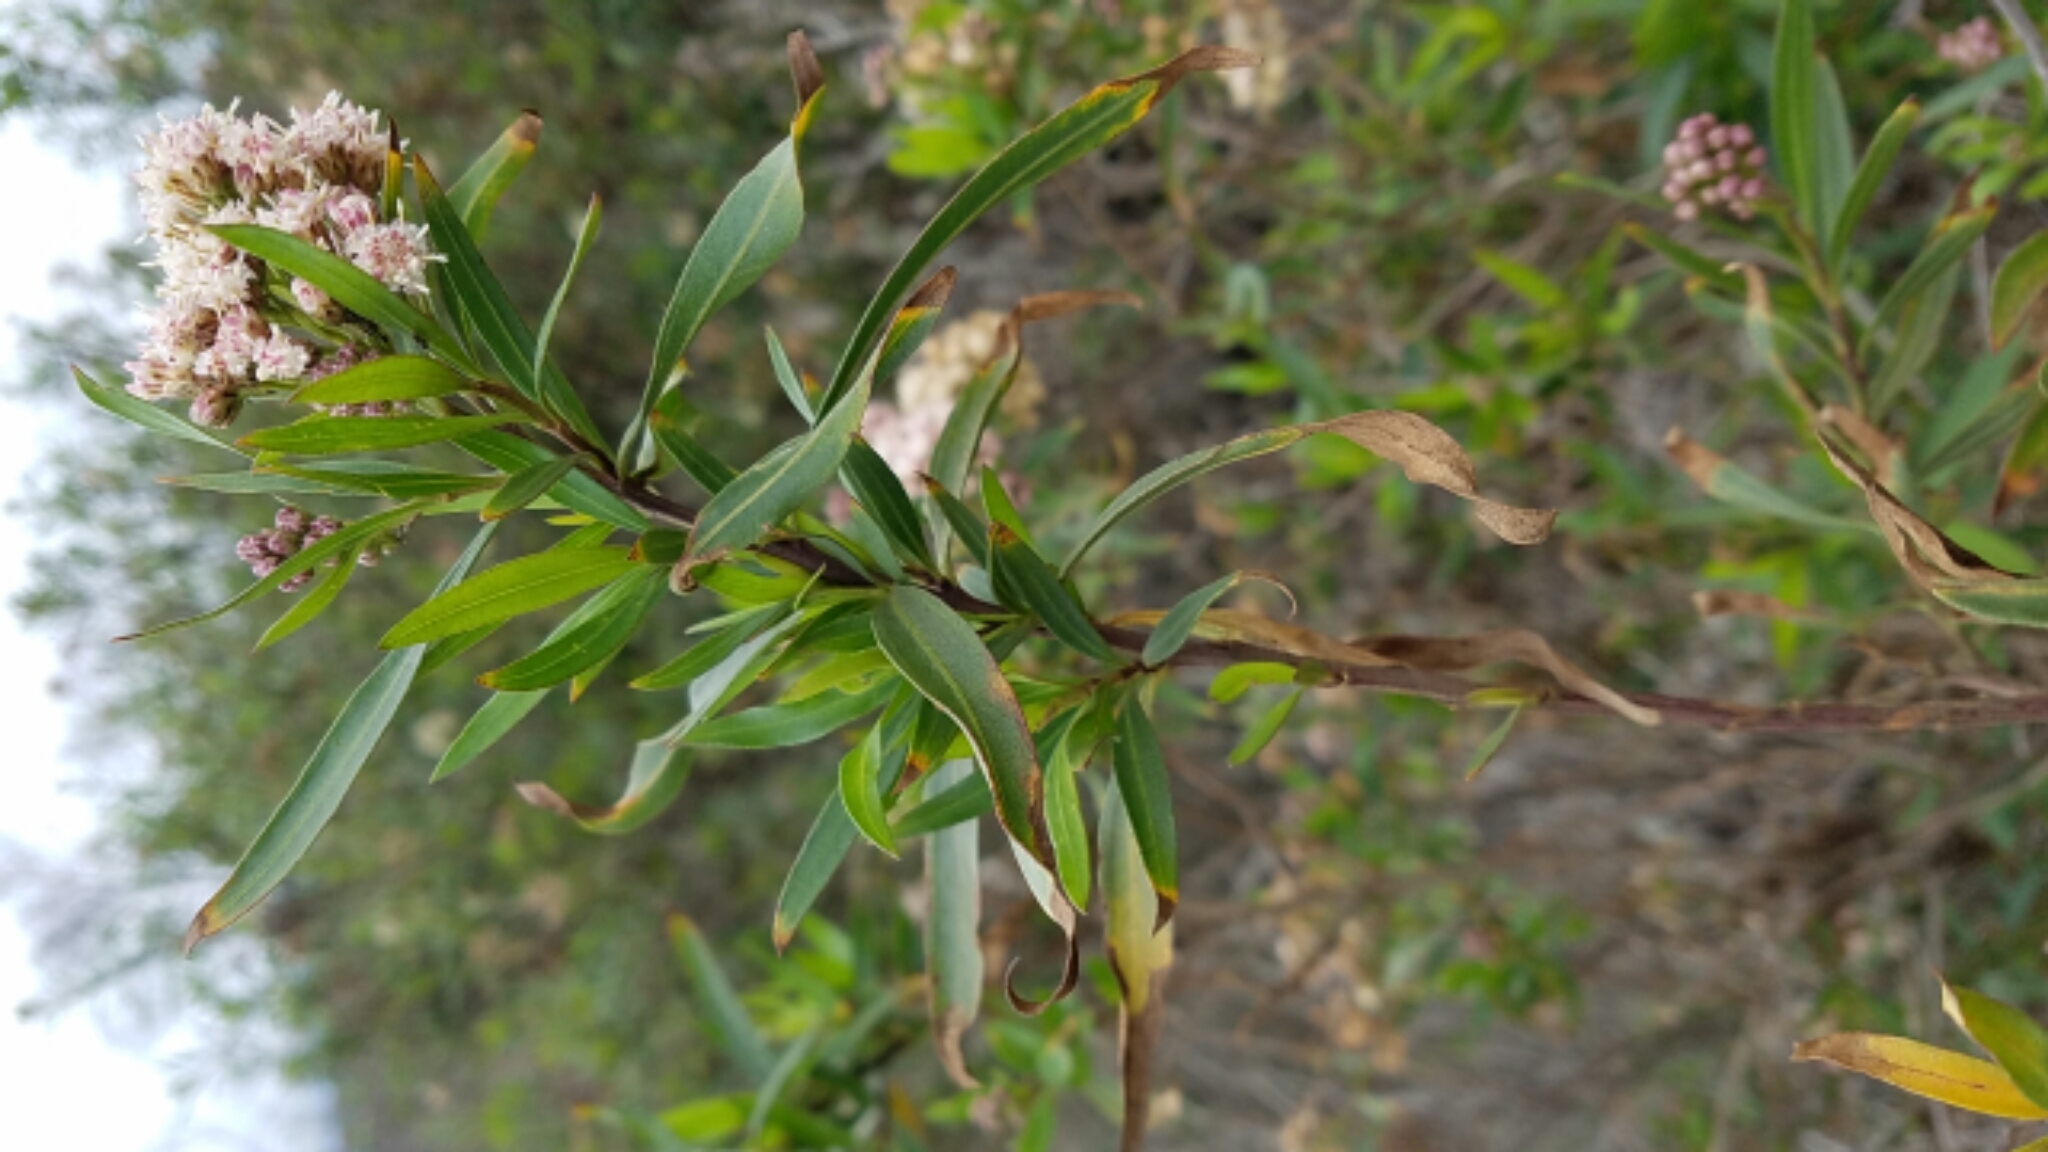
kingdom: Plantae
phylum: Tracheophyta
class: Magnoliopsida
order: Asterales
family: Asteraceae
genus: Baccharis
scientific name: Baccharis salicifolia
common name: Sticky baccharis
